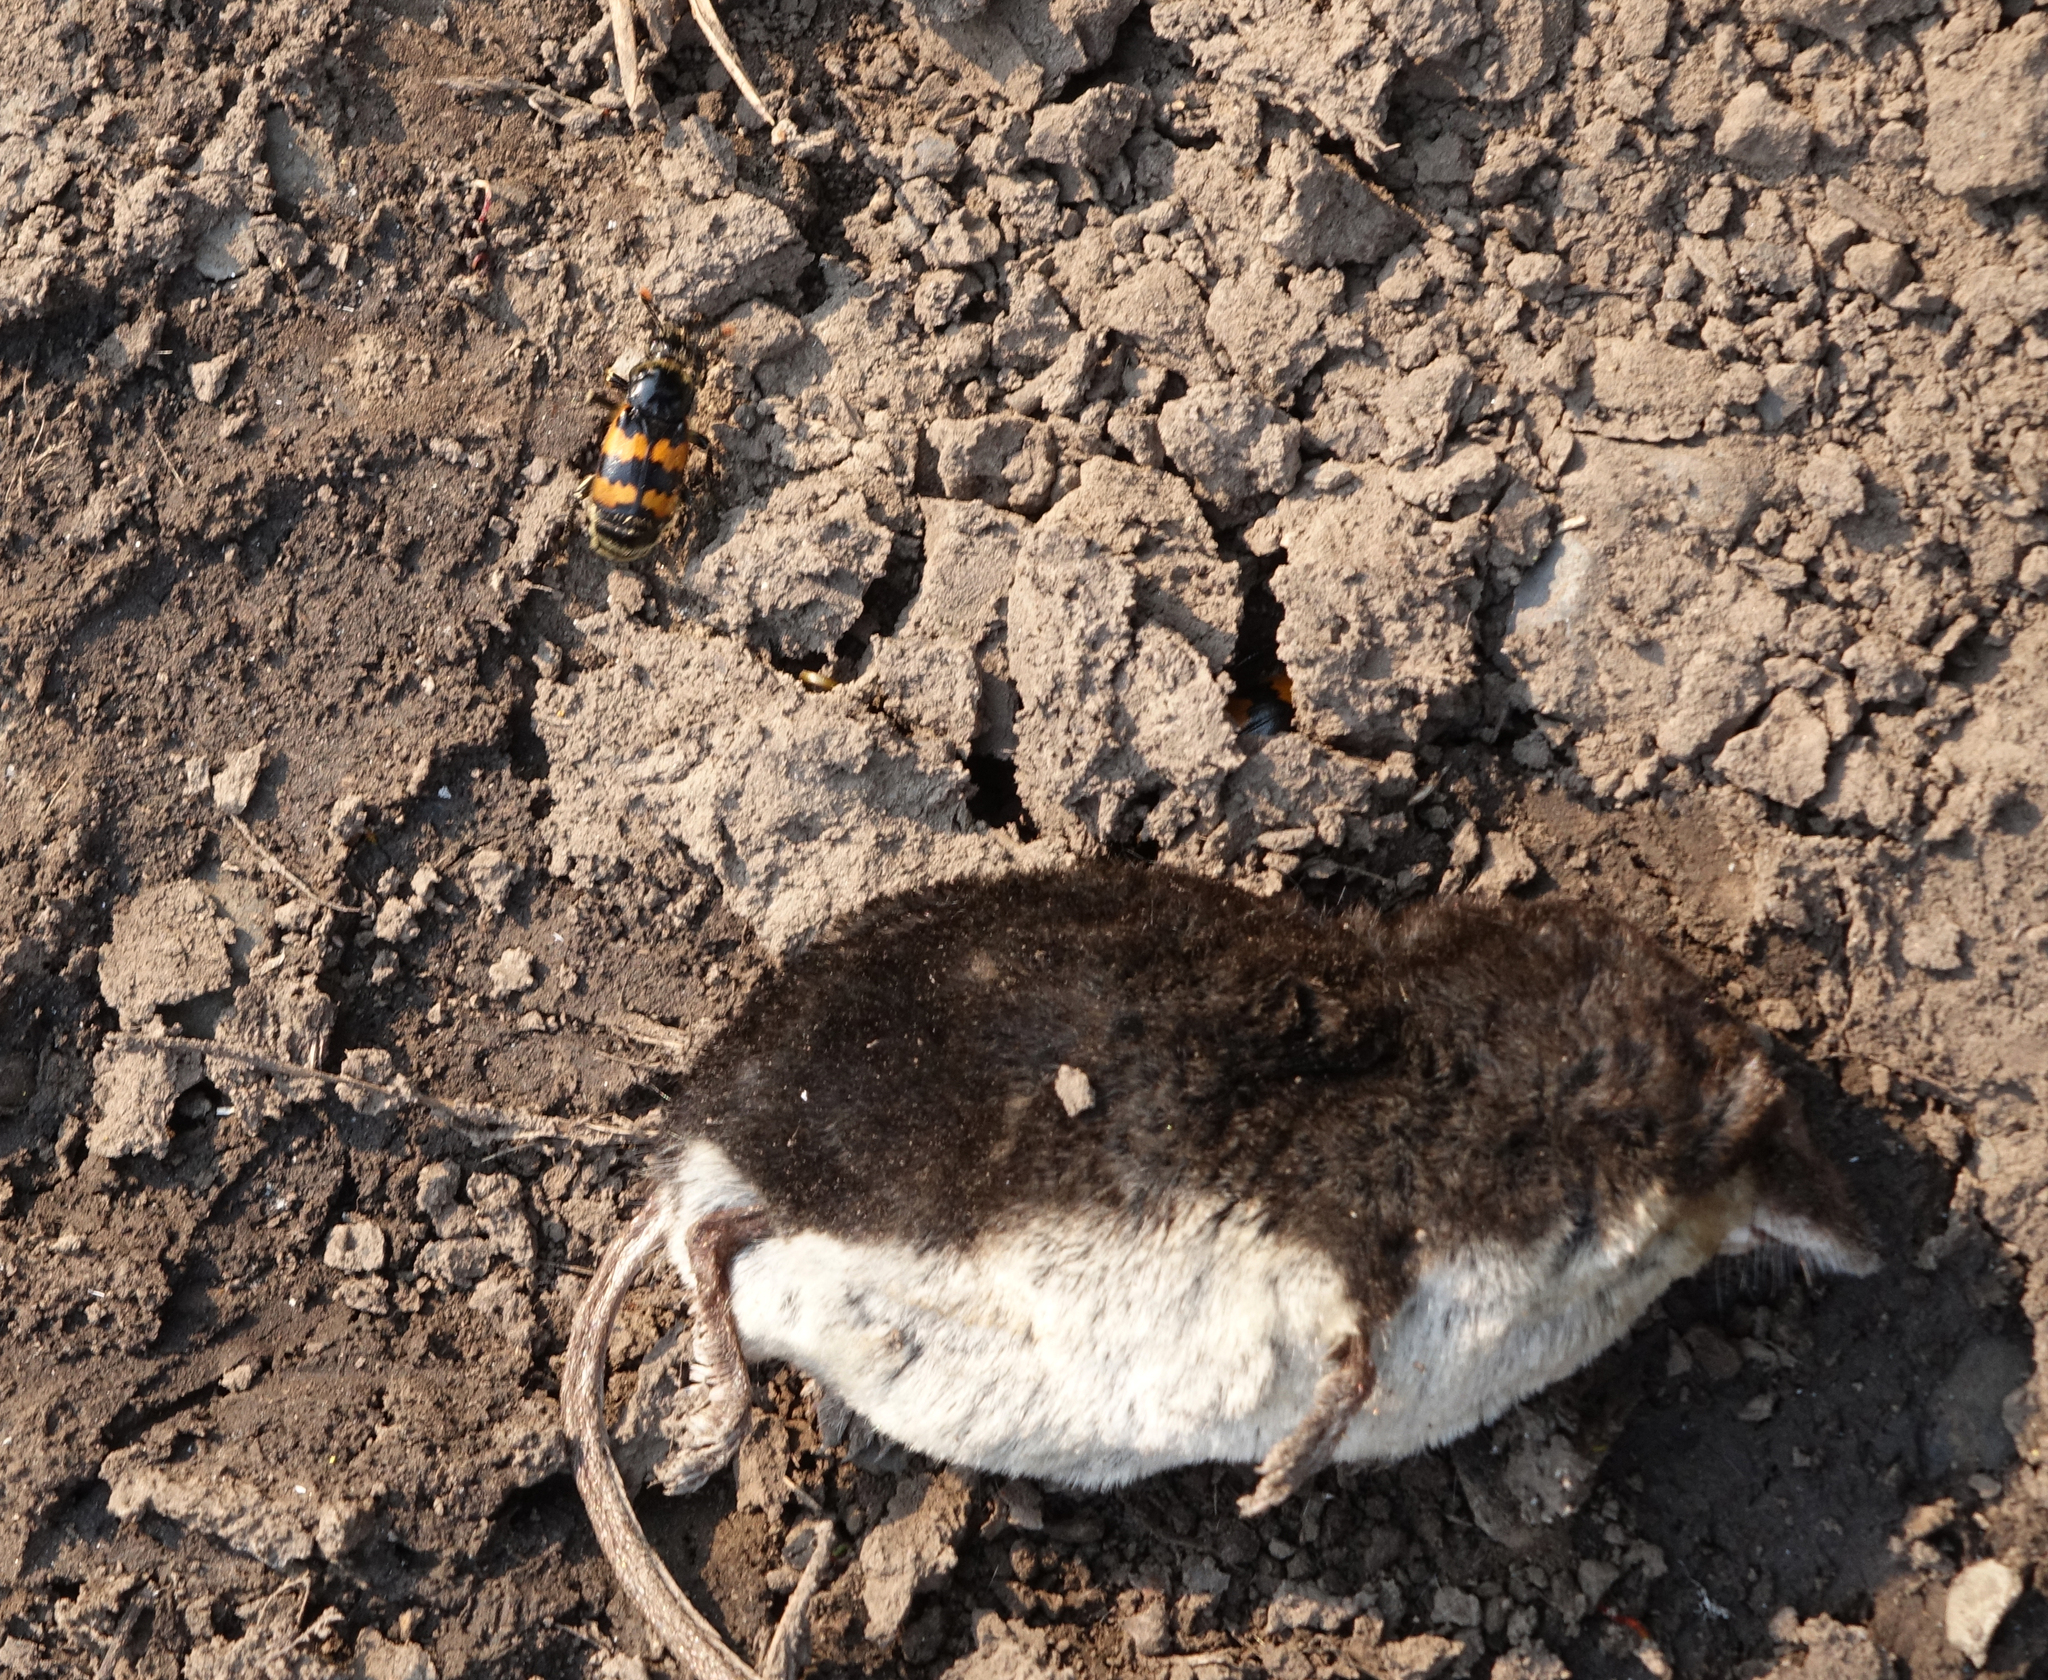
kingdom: Animalia
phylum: Arthropoda
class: Insecta
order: Coleoptera
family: Staphylinidae
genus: Nicrophorus
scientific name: Nicrophorus vespillo
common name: Common burying beetle
